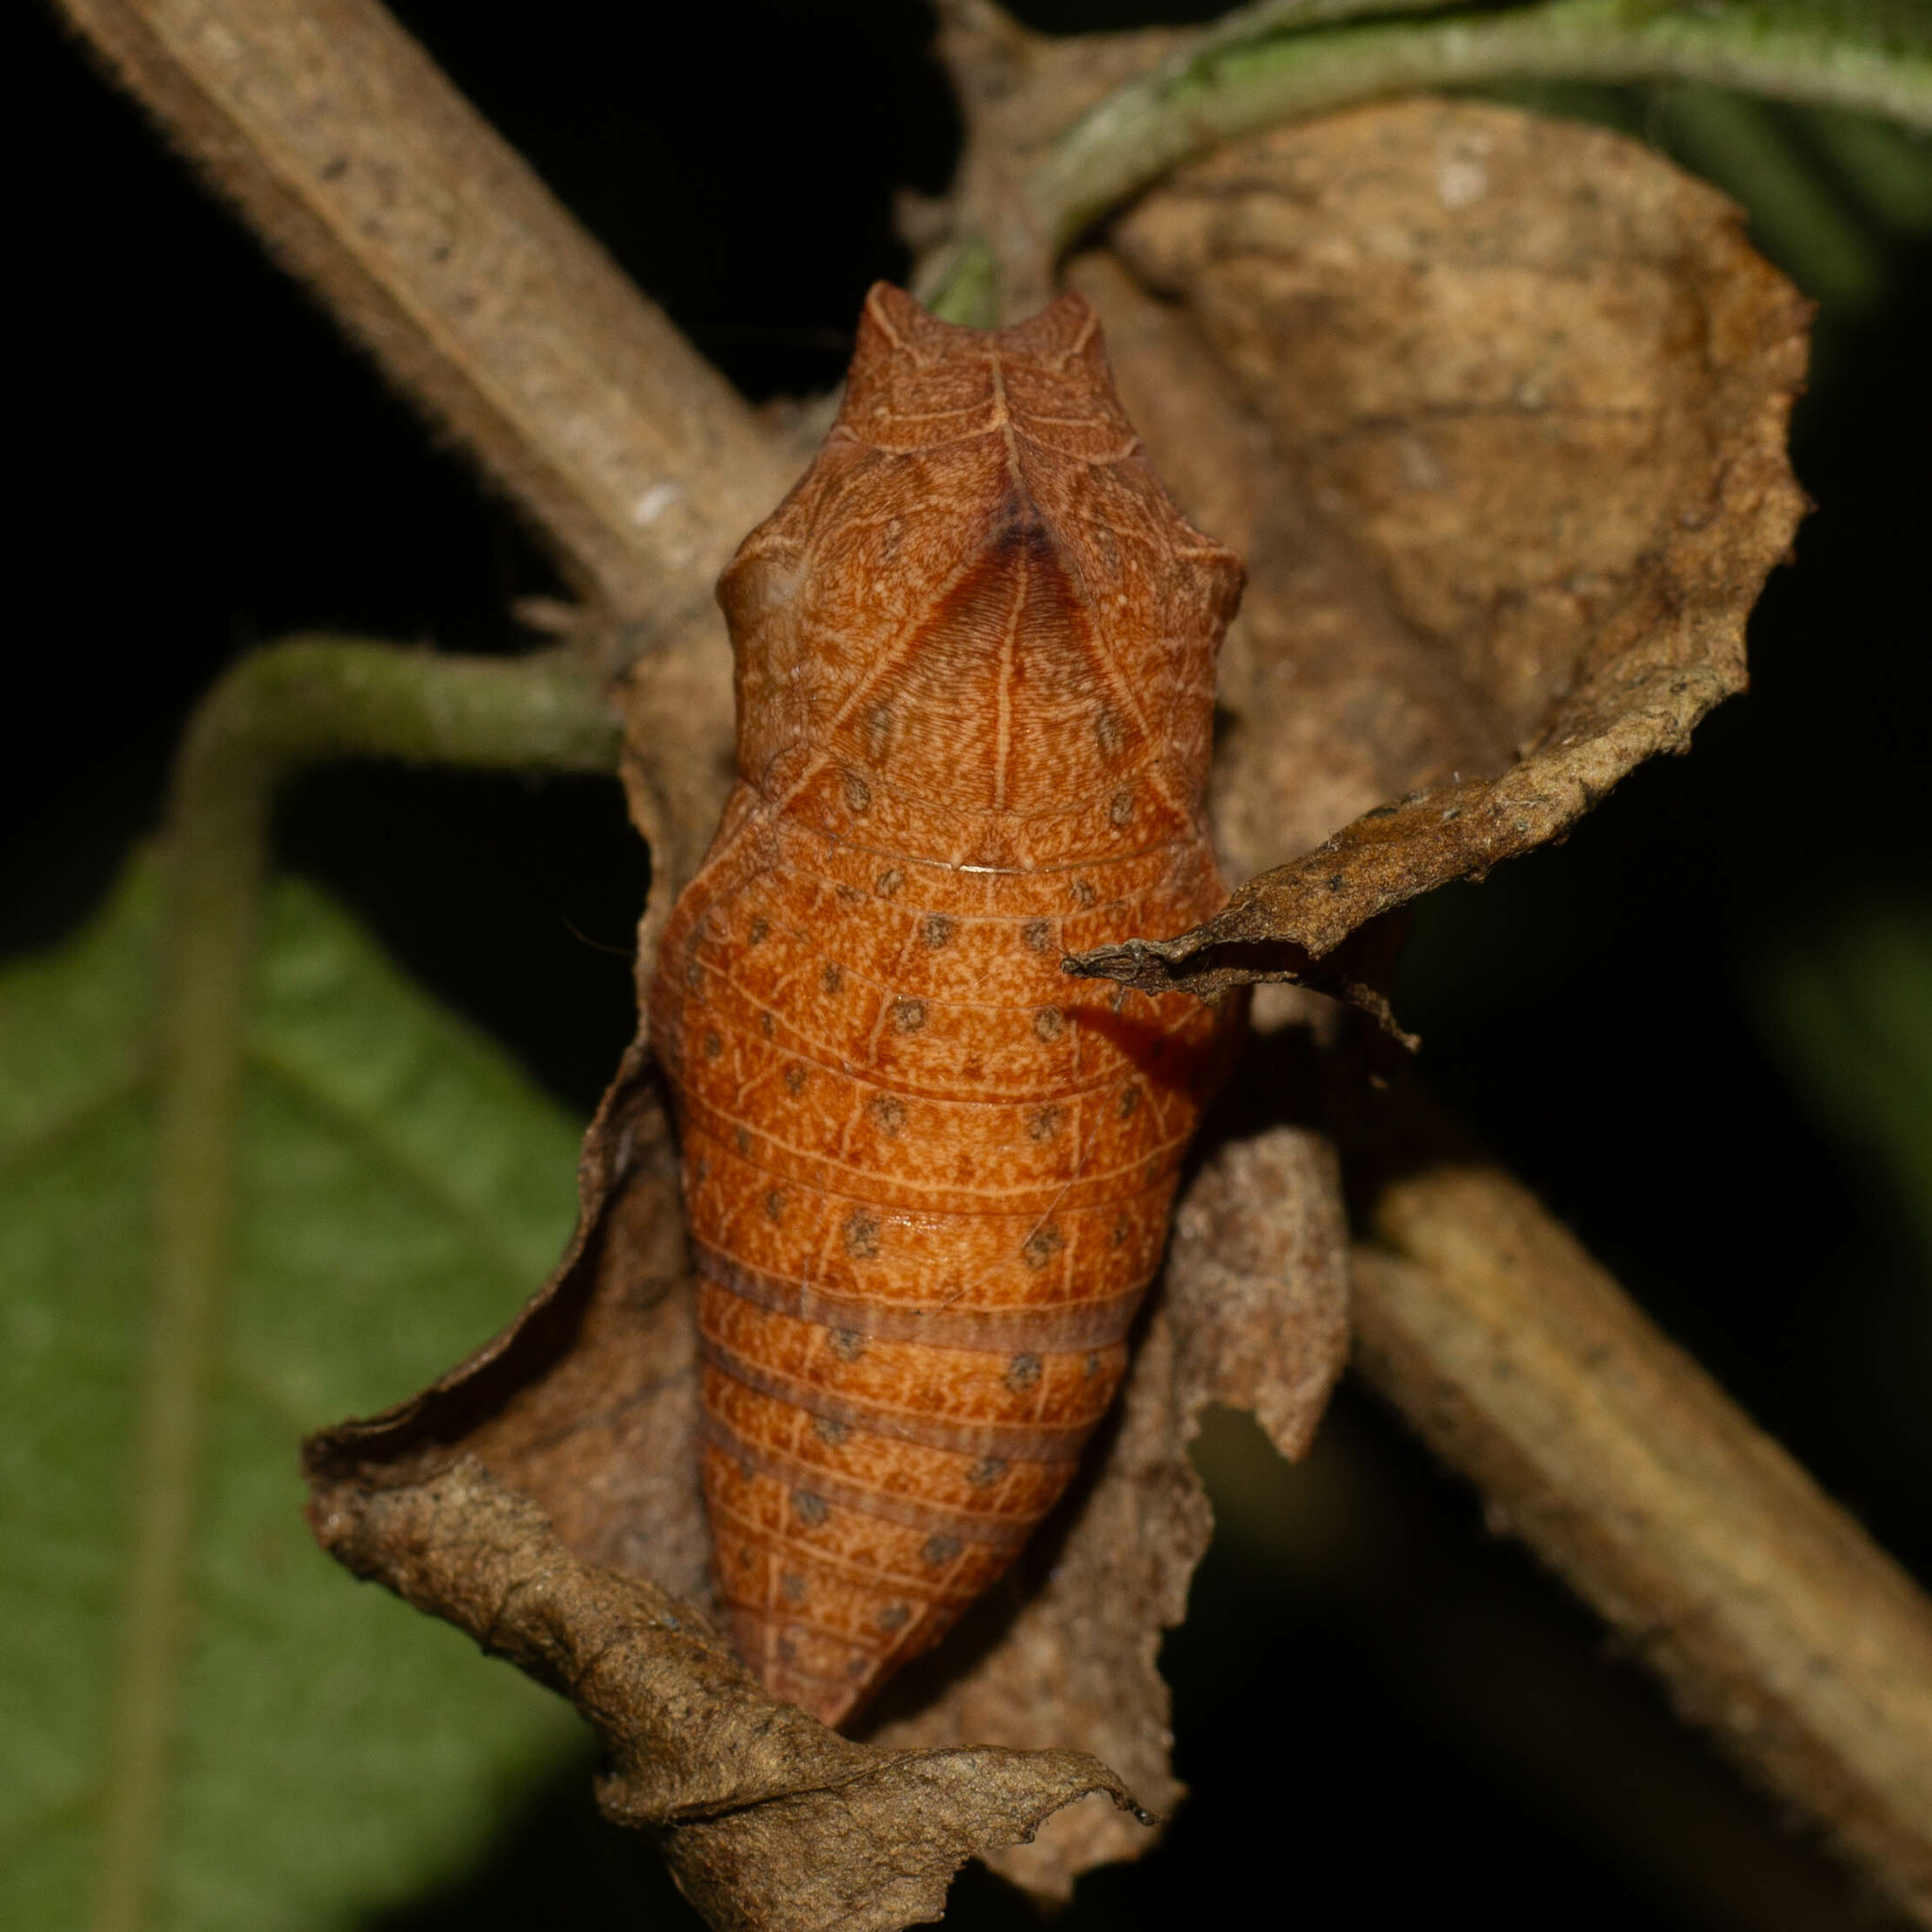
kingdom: Animalia
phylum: Arthropoda
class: Insecta
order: Lepidoptera
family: Papilionidae
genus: Iphiclides
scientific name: Iphiclides feisthamelii
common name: Iberian scarce swallowtail
